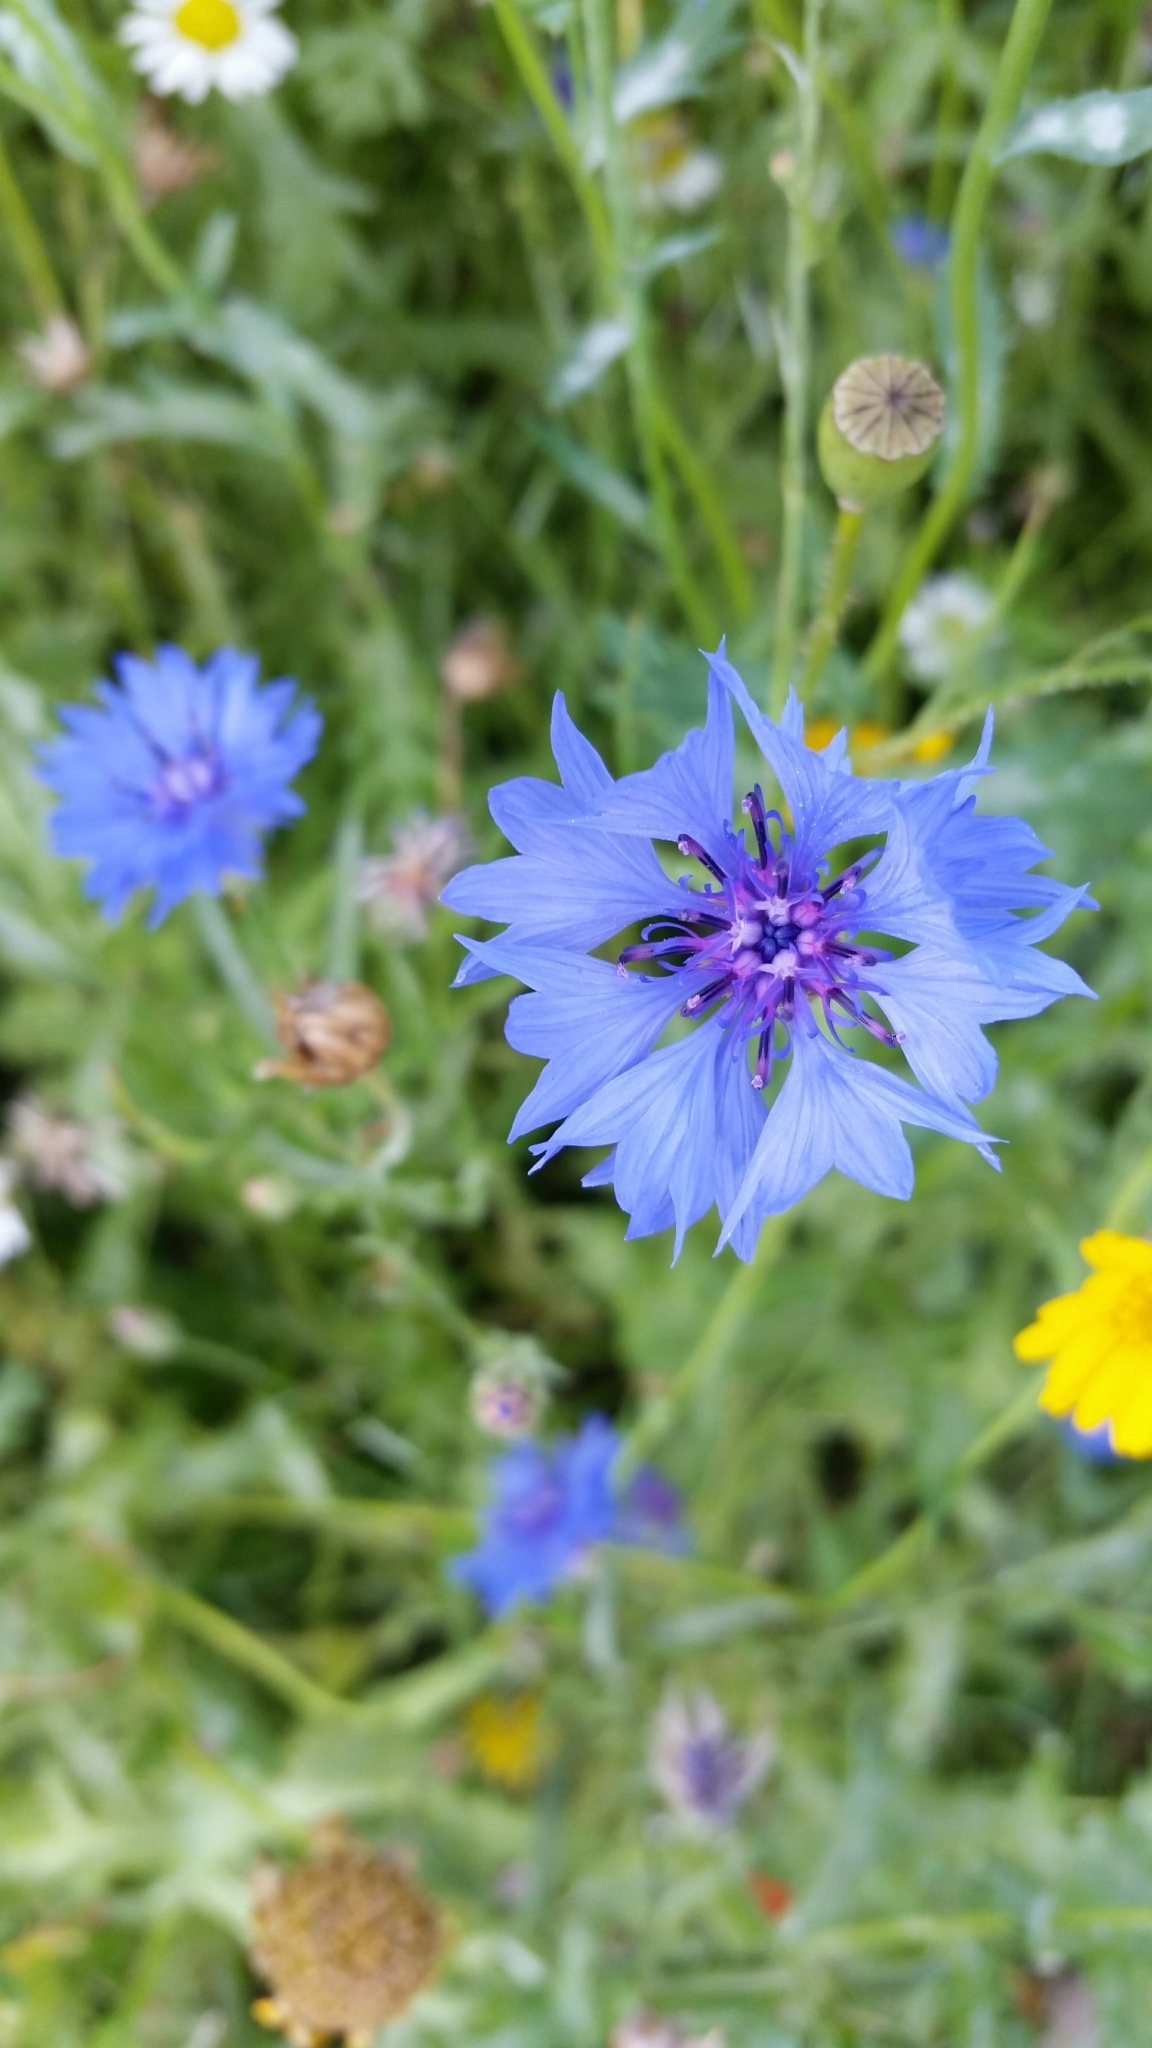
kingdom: Plantae
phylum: Tracheophyta
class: Magnoliopsida
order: Asterales
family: Asteraceae
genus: Centaurea
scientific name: Centaurea cyanus
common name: Cornflower
